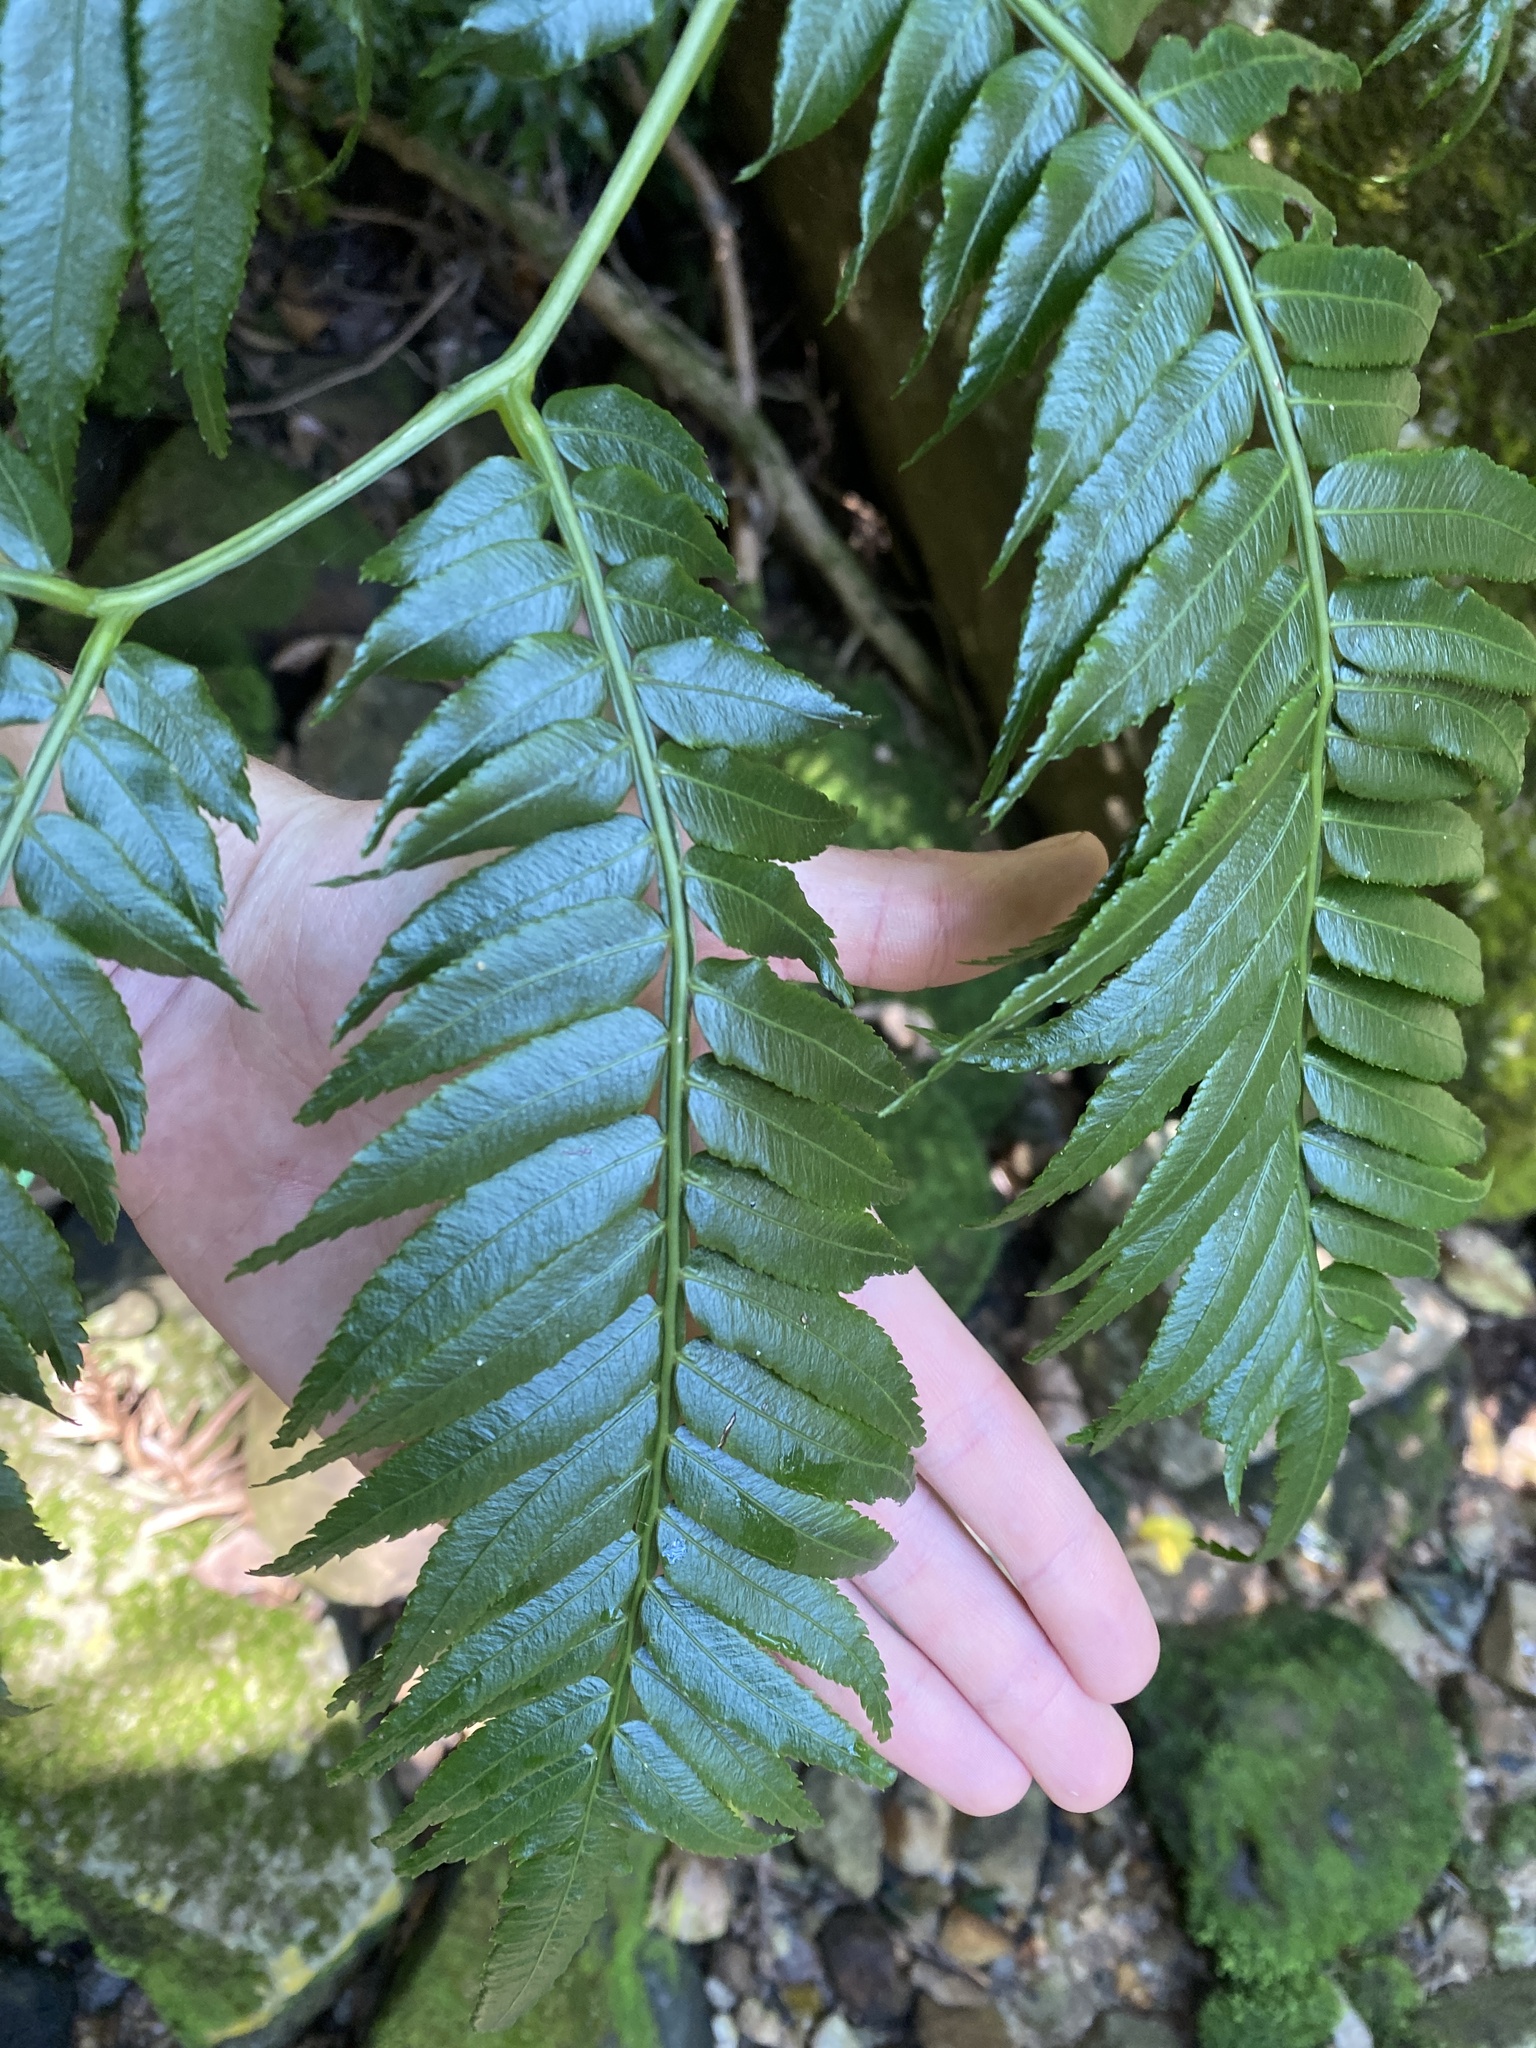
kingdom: Plantae
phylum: Tracheophyta
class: Polypodiopsida
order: Marattiales
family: Marattiaceae
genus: Ptisana
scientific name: Ptisana salicifolia
